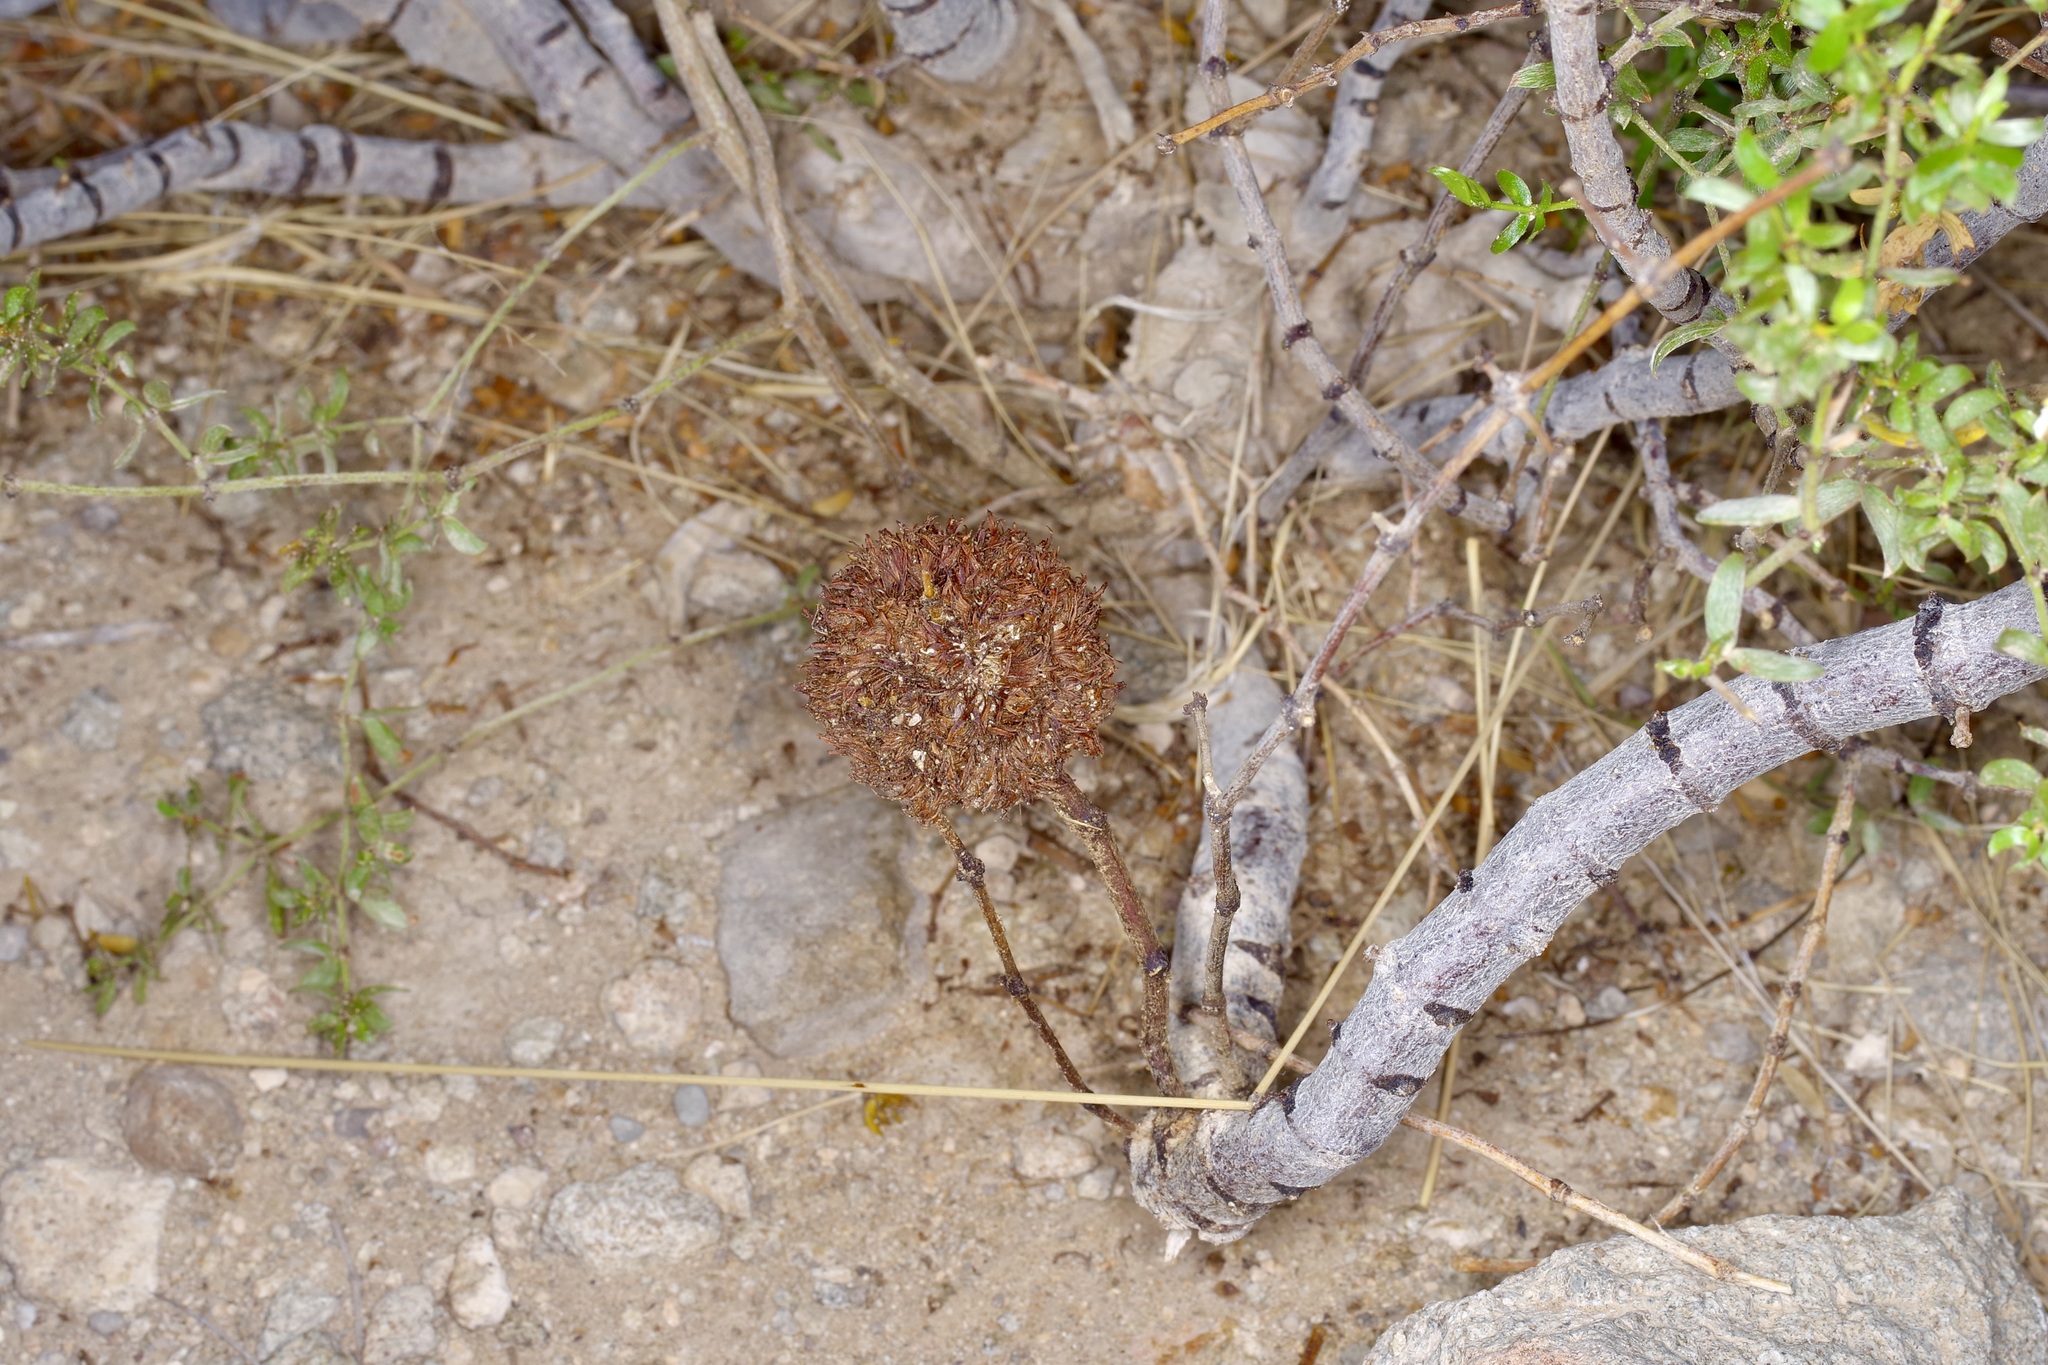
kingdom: Animalia
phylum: Arthropoda
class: Insecta
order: Diptera
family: Cecidomyiidae
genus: Asphondylia
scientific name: Asphondylia auripila
